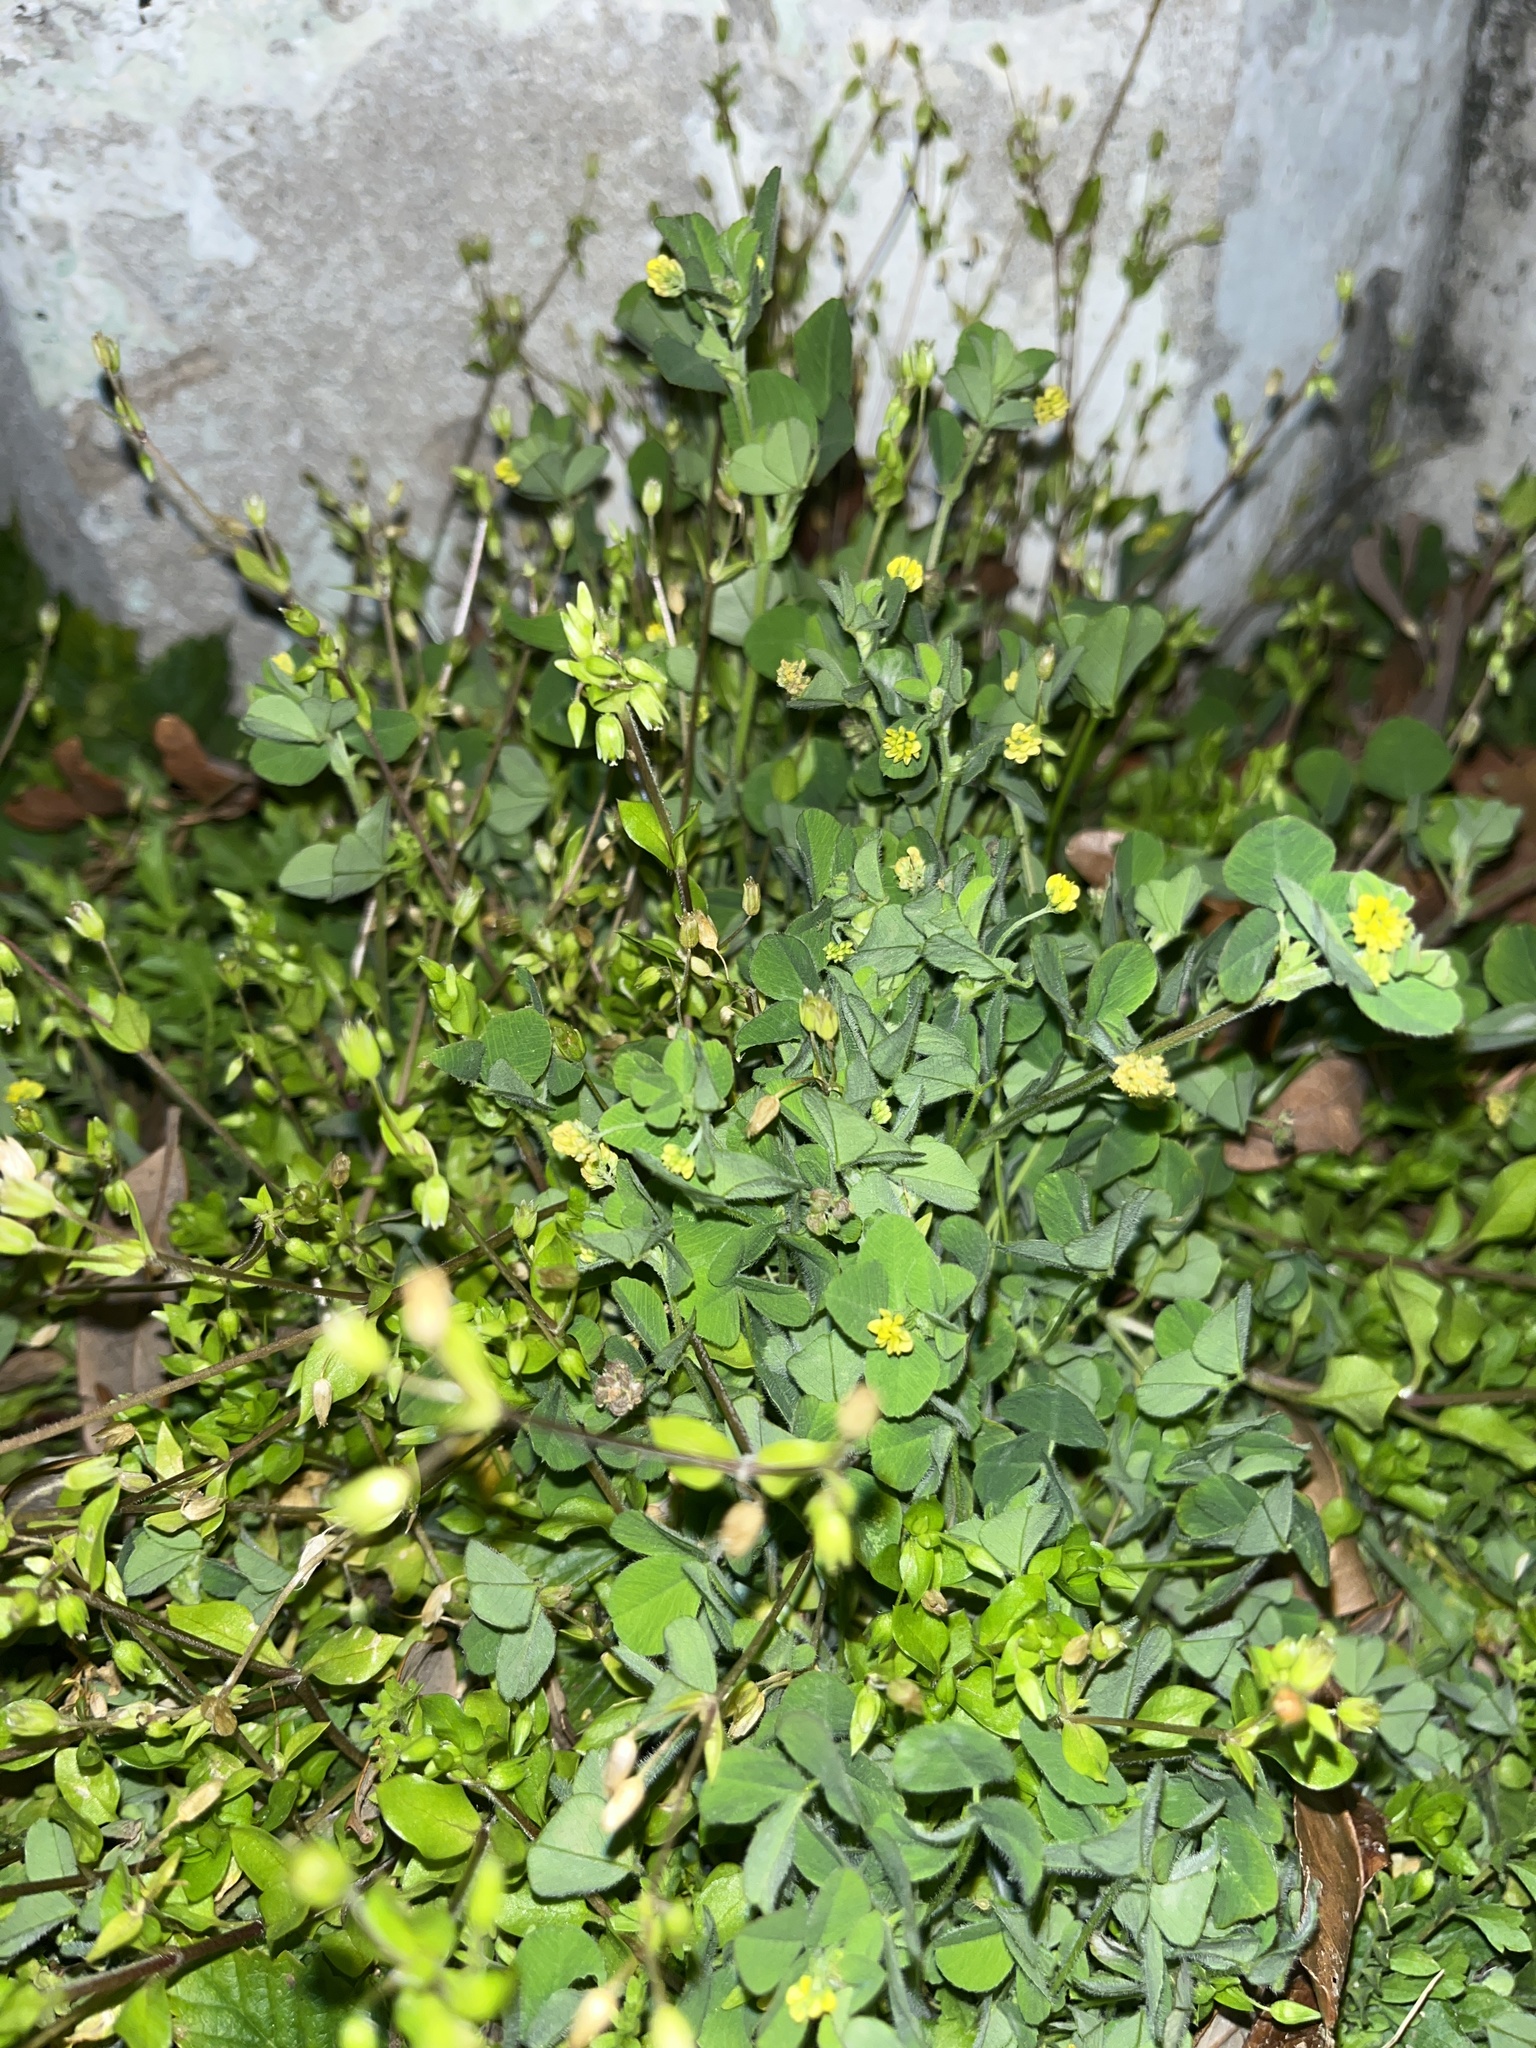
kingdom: Plantae
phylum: Tracheophyta
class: Magnoliopsida
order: Fabales
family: Fabaceae
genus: Medicago
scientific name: Medicago lupulina
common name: Black medick
